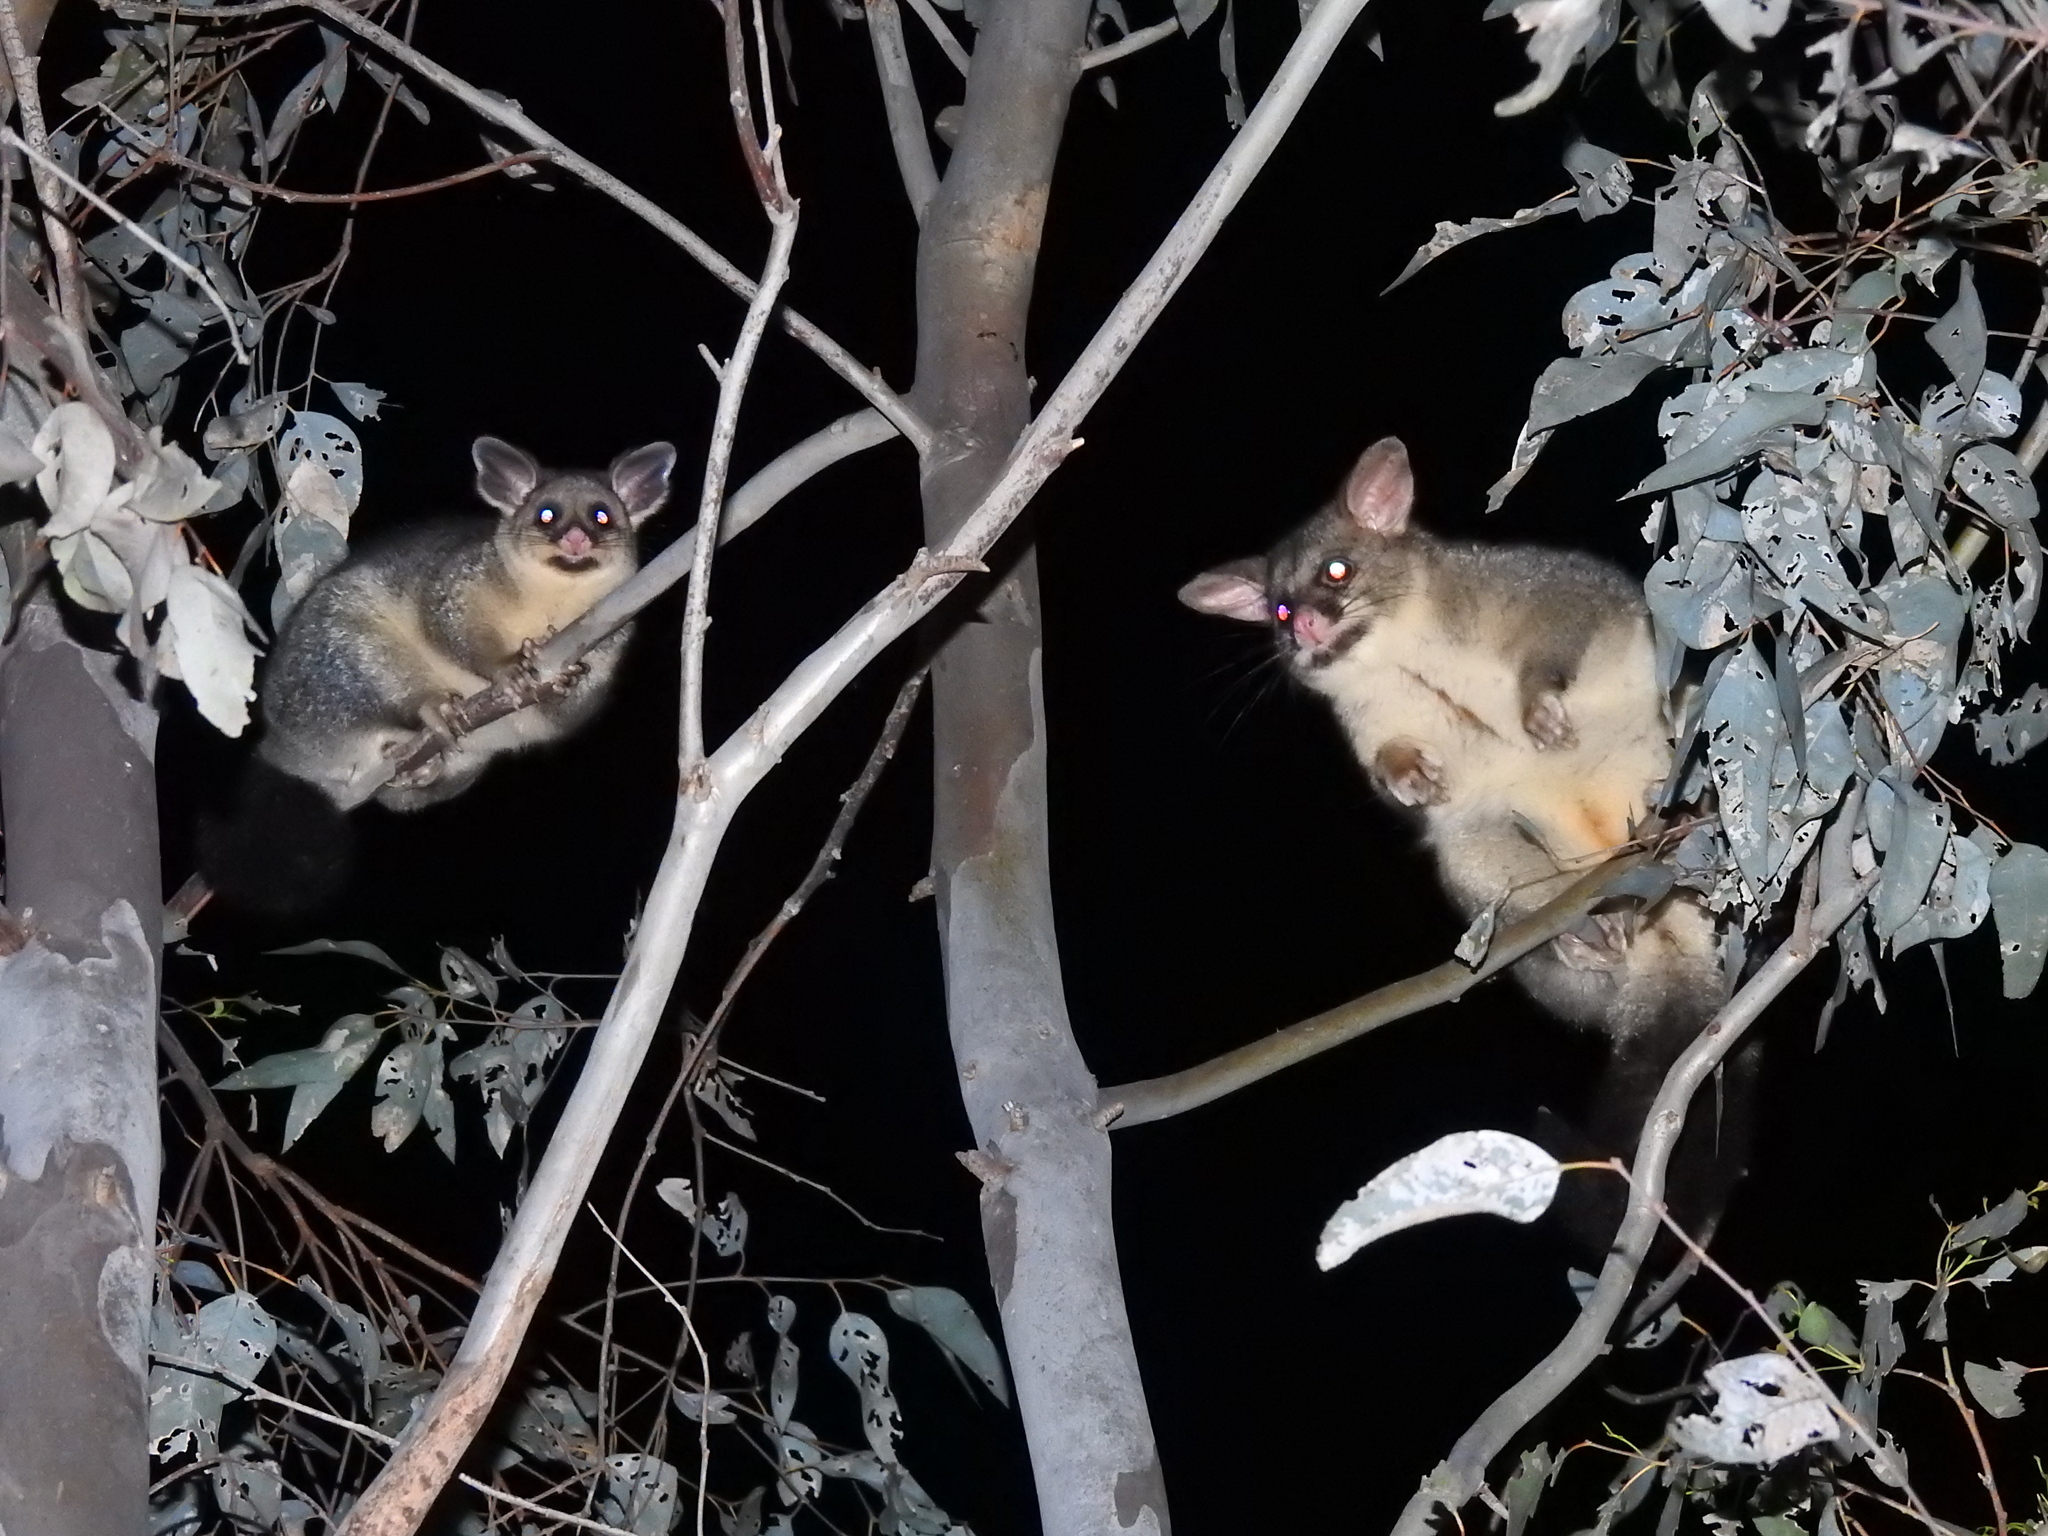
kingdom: Animalia
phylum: Chordata
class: Mammalia
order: Diprotodontia
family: Phalangeridae
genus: Trichosurus
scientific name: Trichosurus vulpecula
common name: Common brushtail
